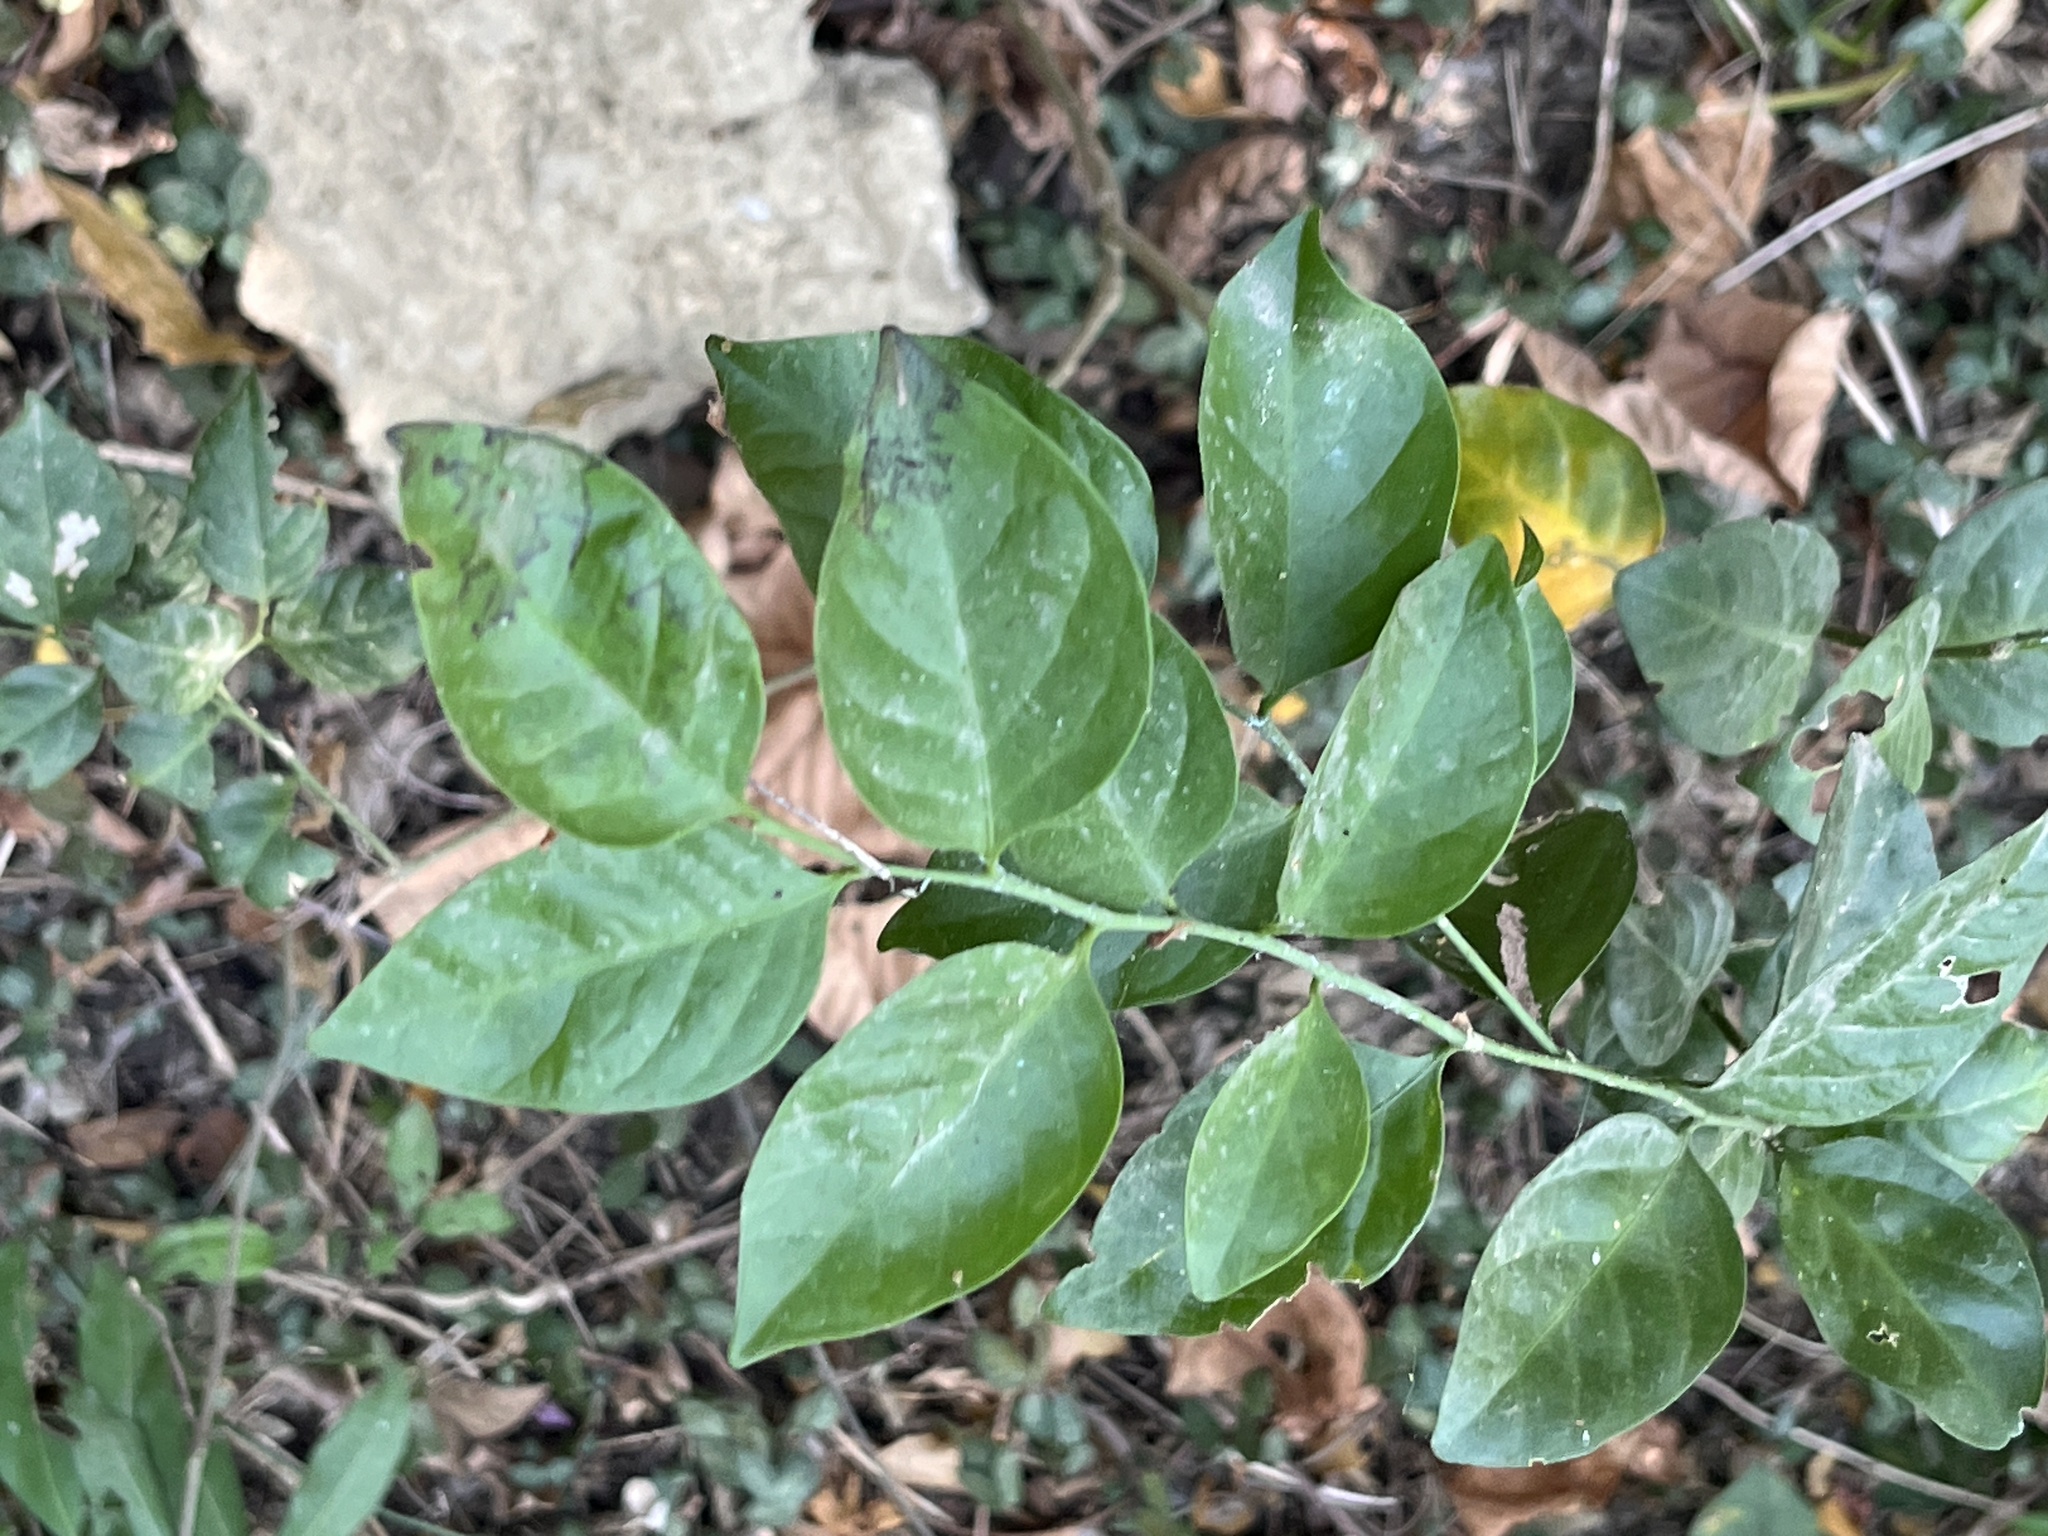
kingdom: Plantae
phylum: Tracheophyta
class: Magnoliopsida
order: Santalales
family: Opiliaceae
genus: Champereia
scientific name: Champereia manillana
